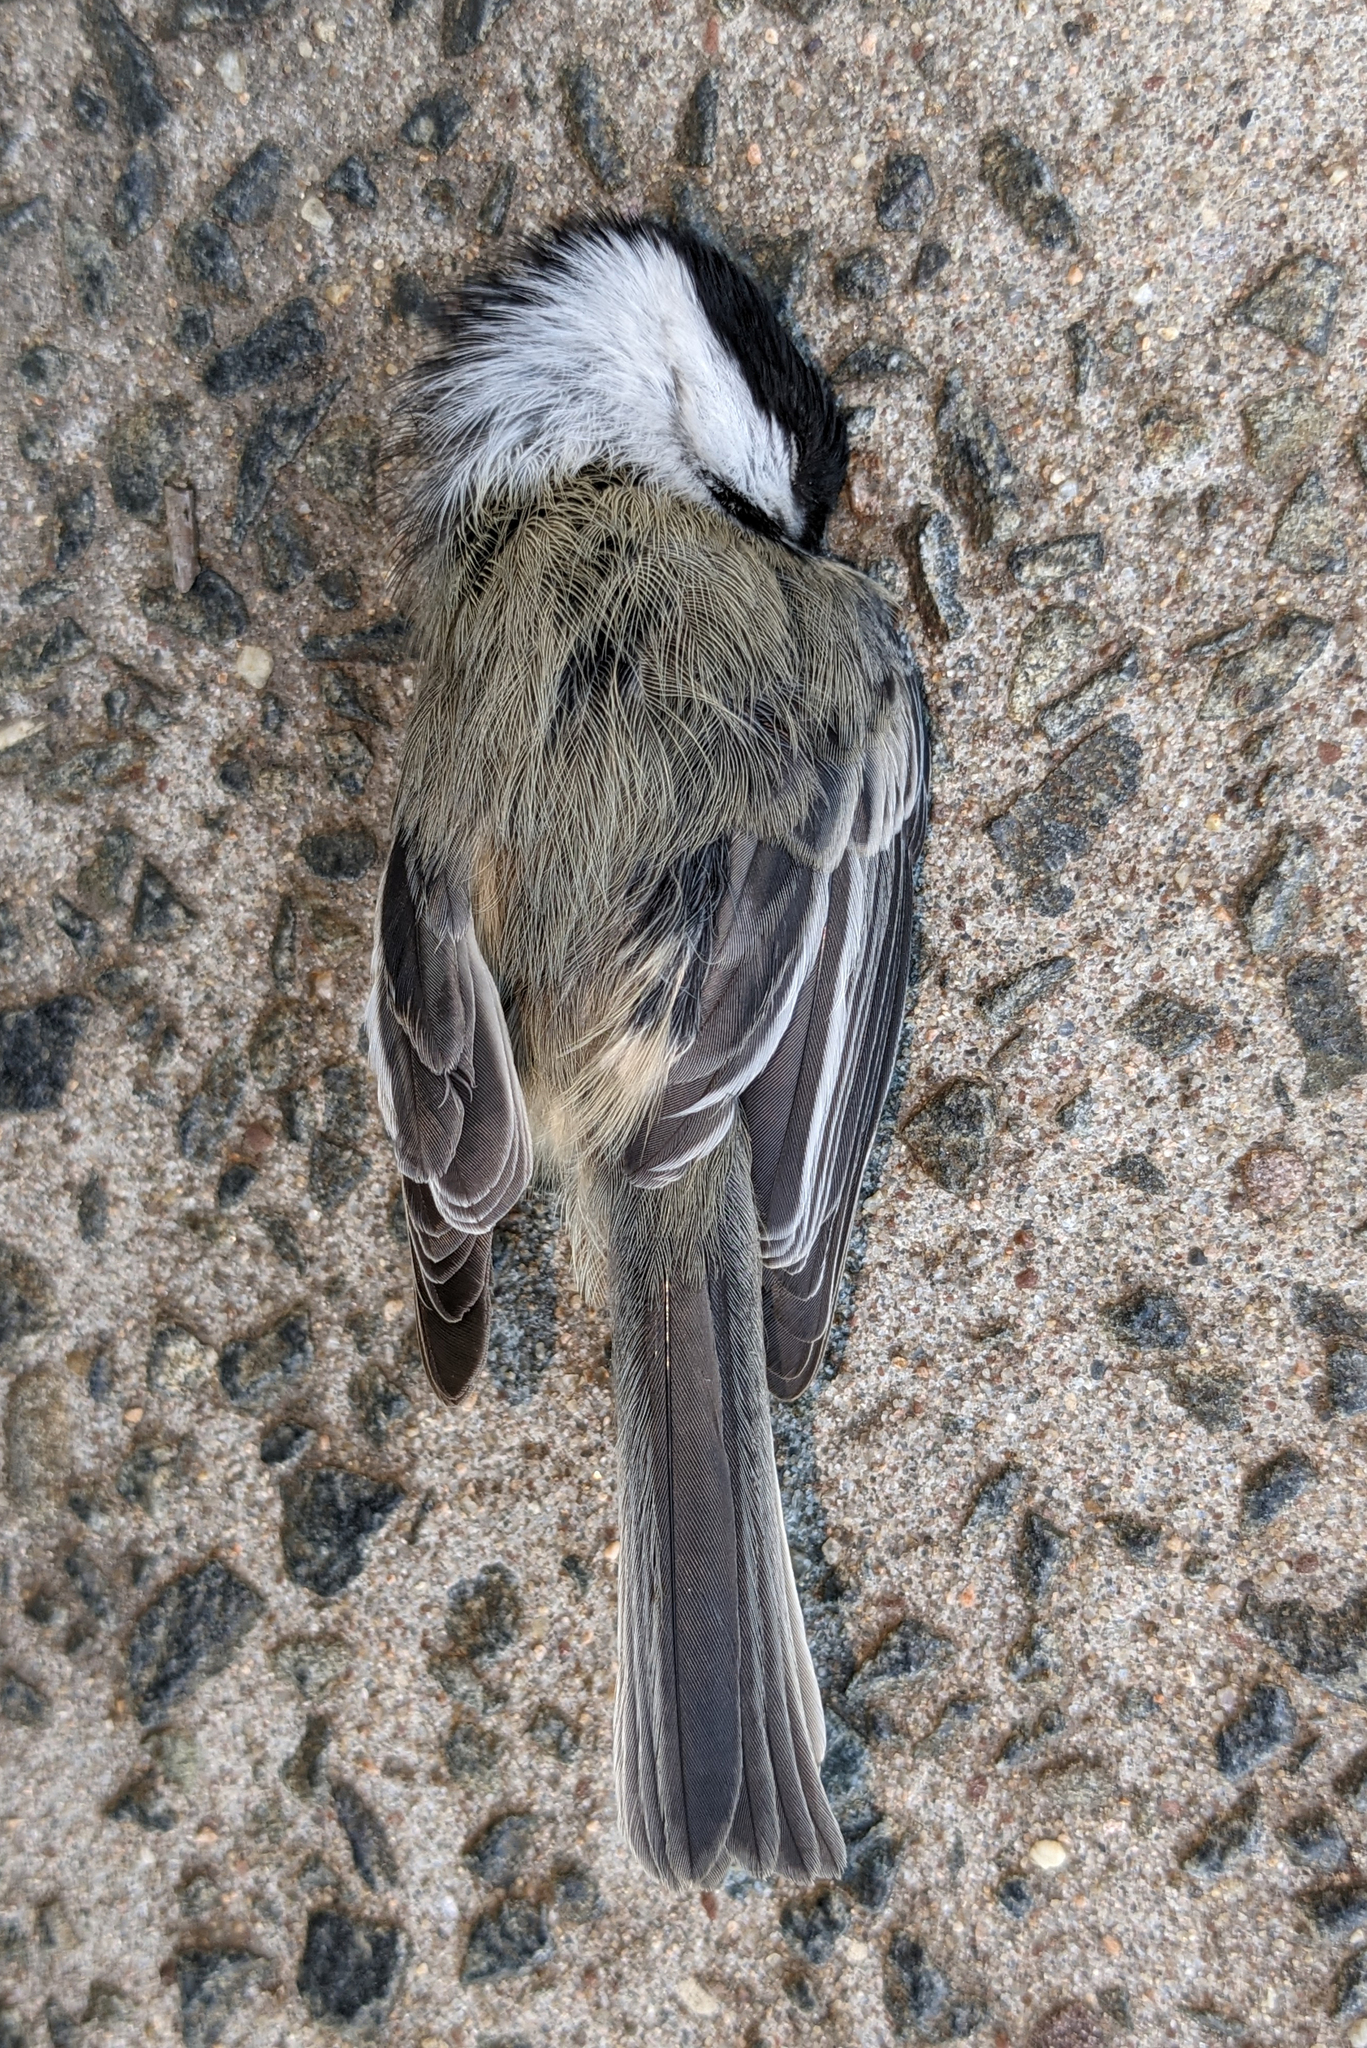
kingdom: Animalia
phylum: Chordata
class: Aves
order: Passeriformes
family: Paridae
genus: Poecile
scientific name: Poecile atricapillus
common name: Black-capped chickadee
